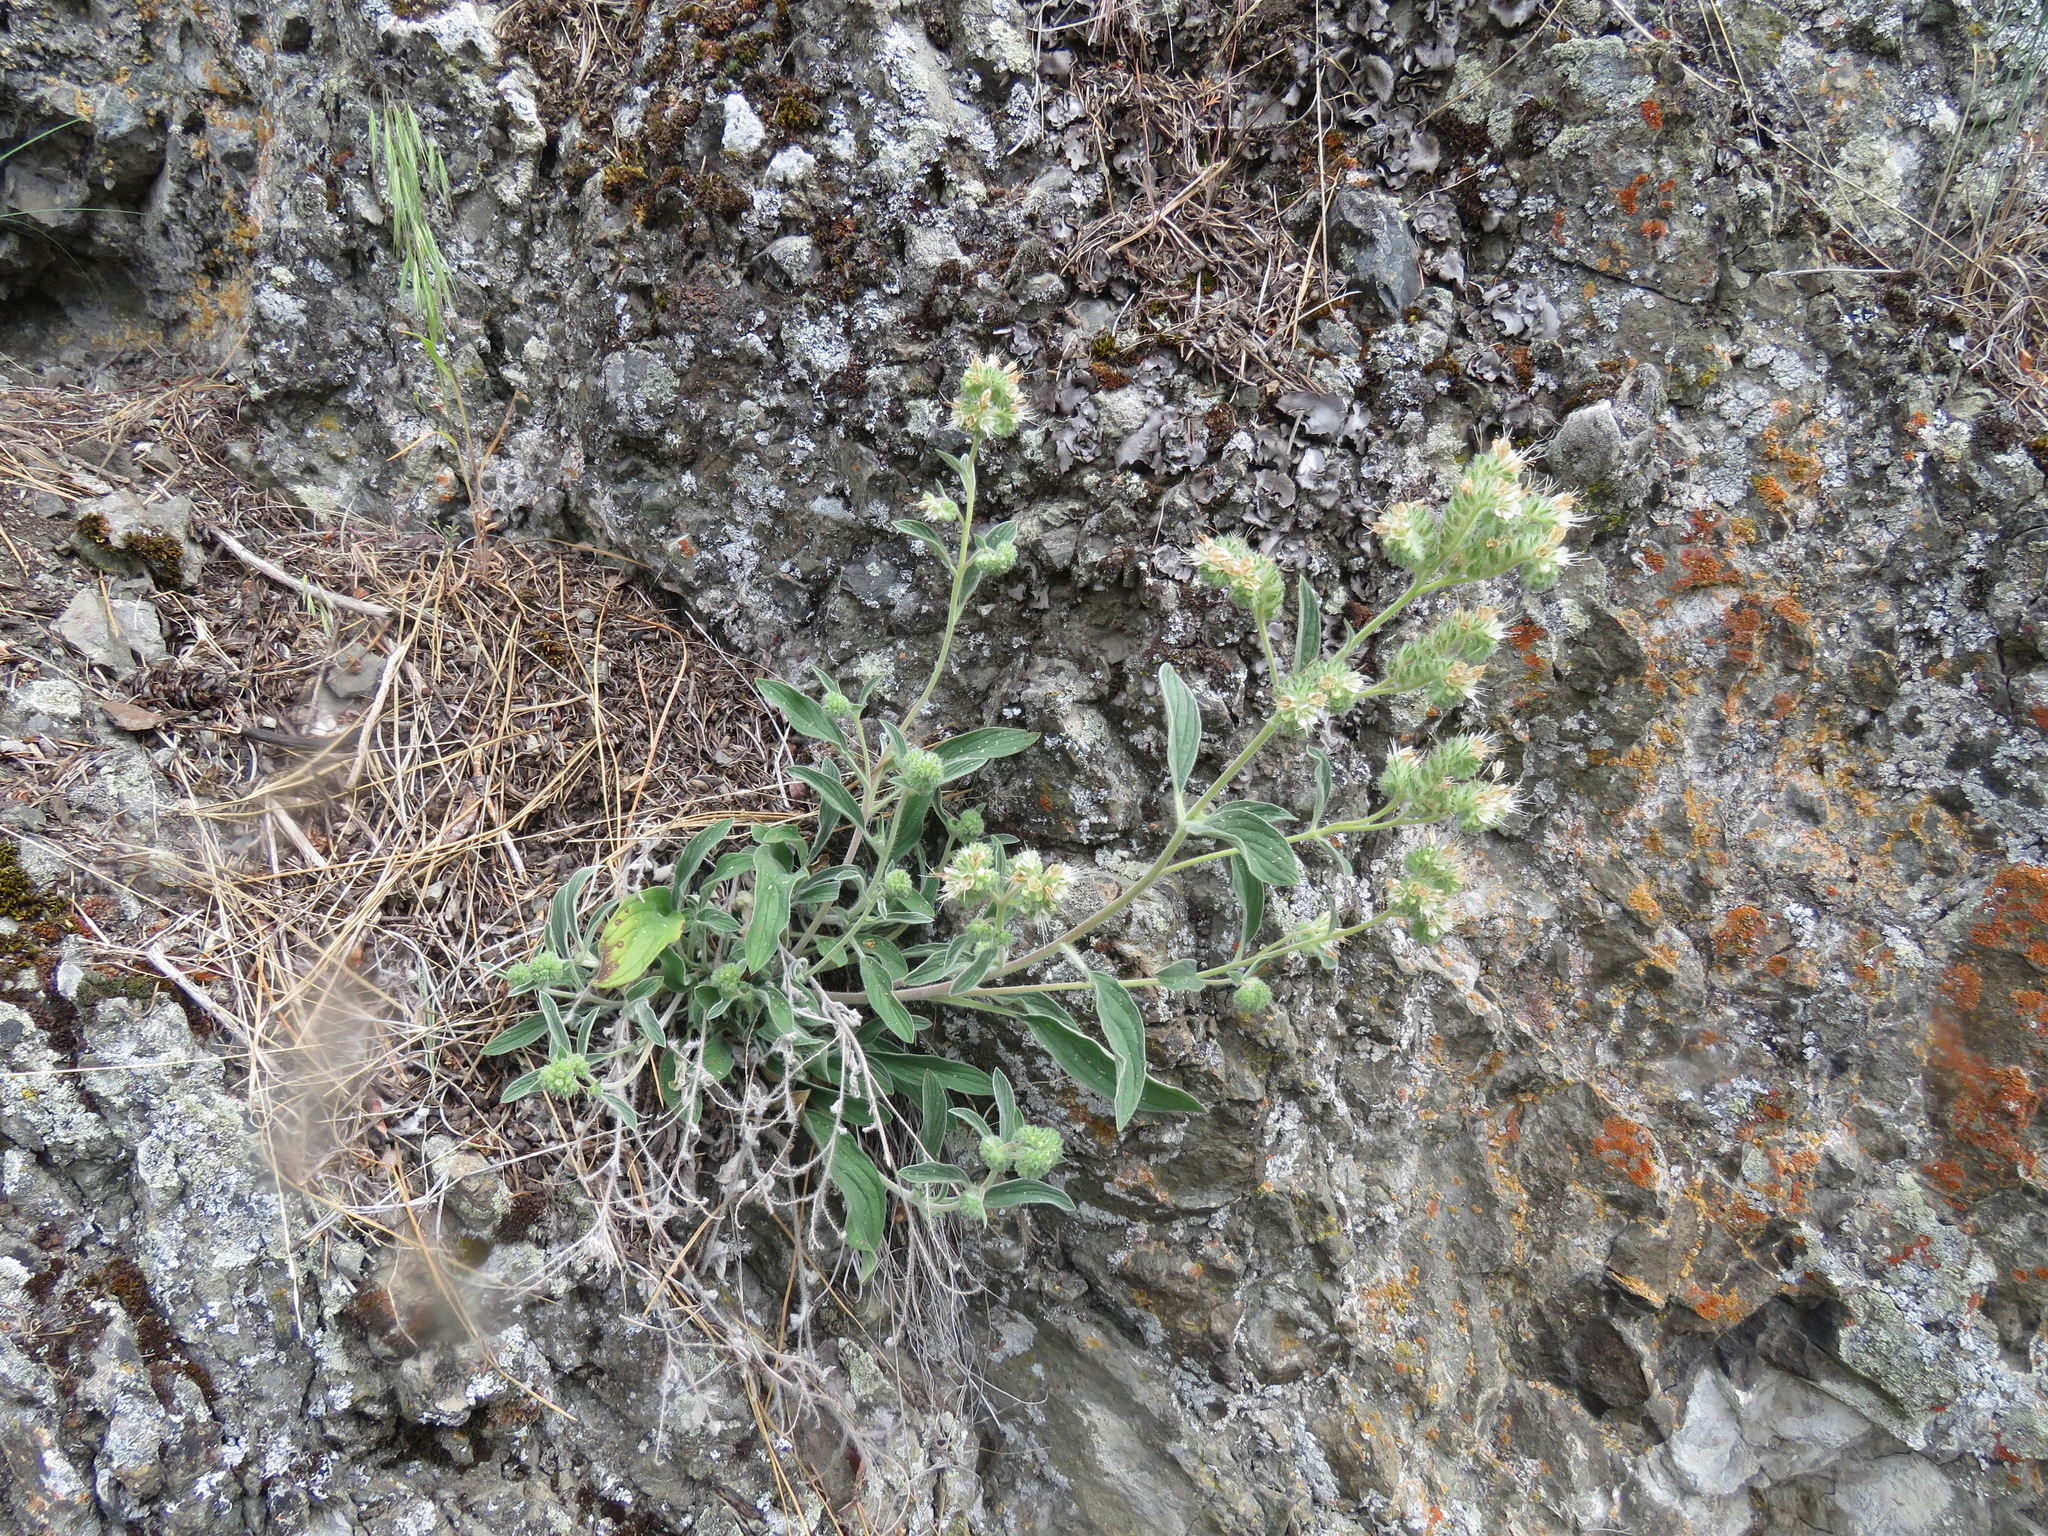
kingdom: Plantae
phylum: Tracheophyta
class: Magnoliopsida
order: Boraginales
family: Hydrophyllaceae
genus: Phacelia
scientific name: Phacelia hastata
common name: Silver-leaved phacelia
